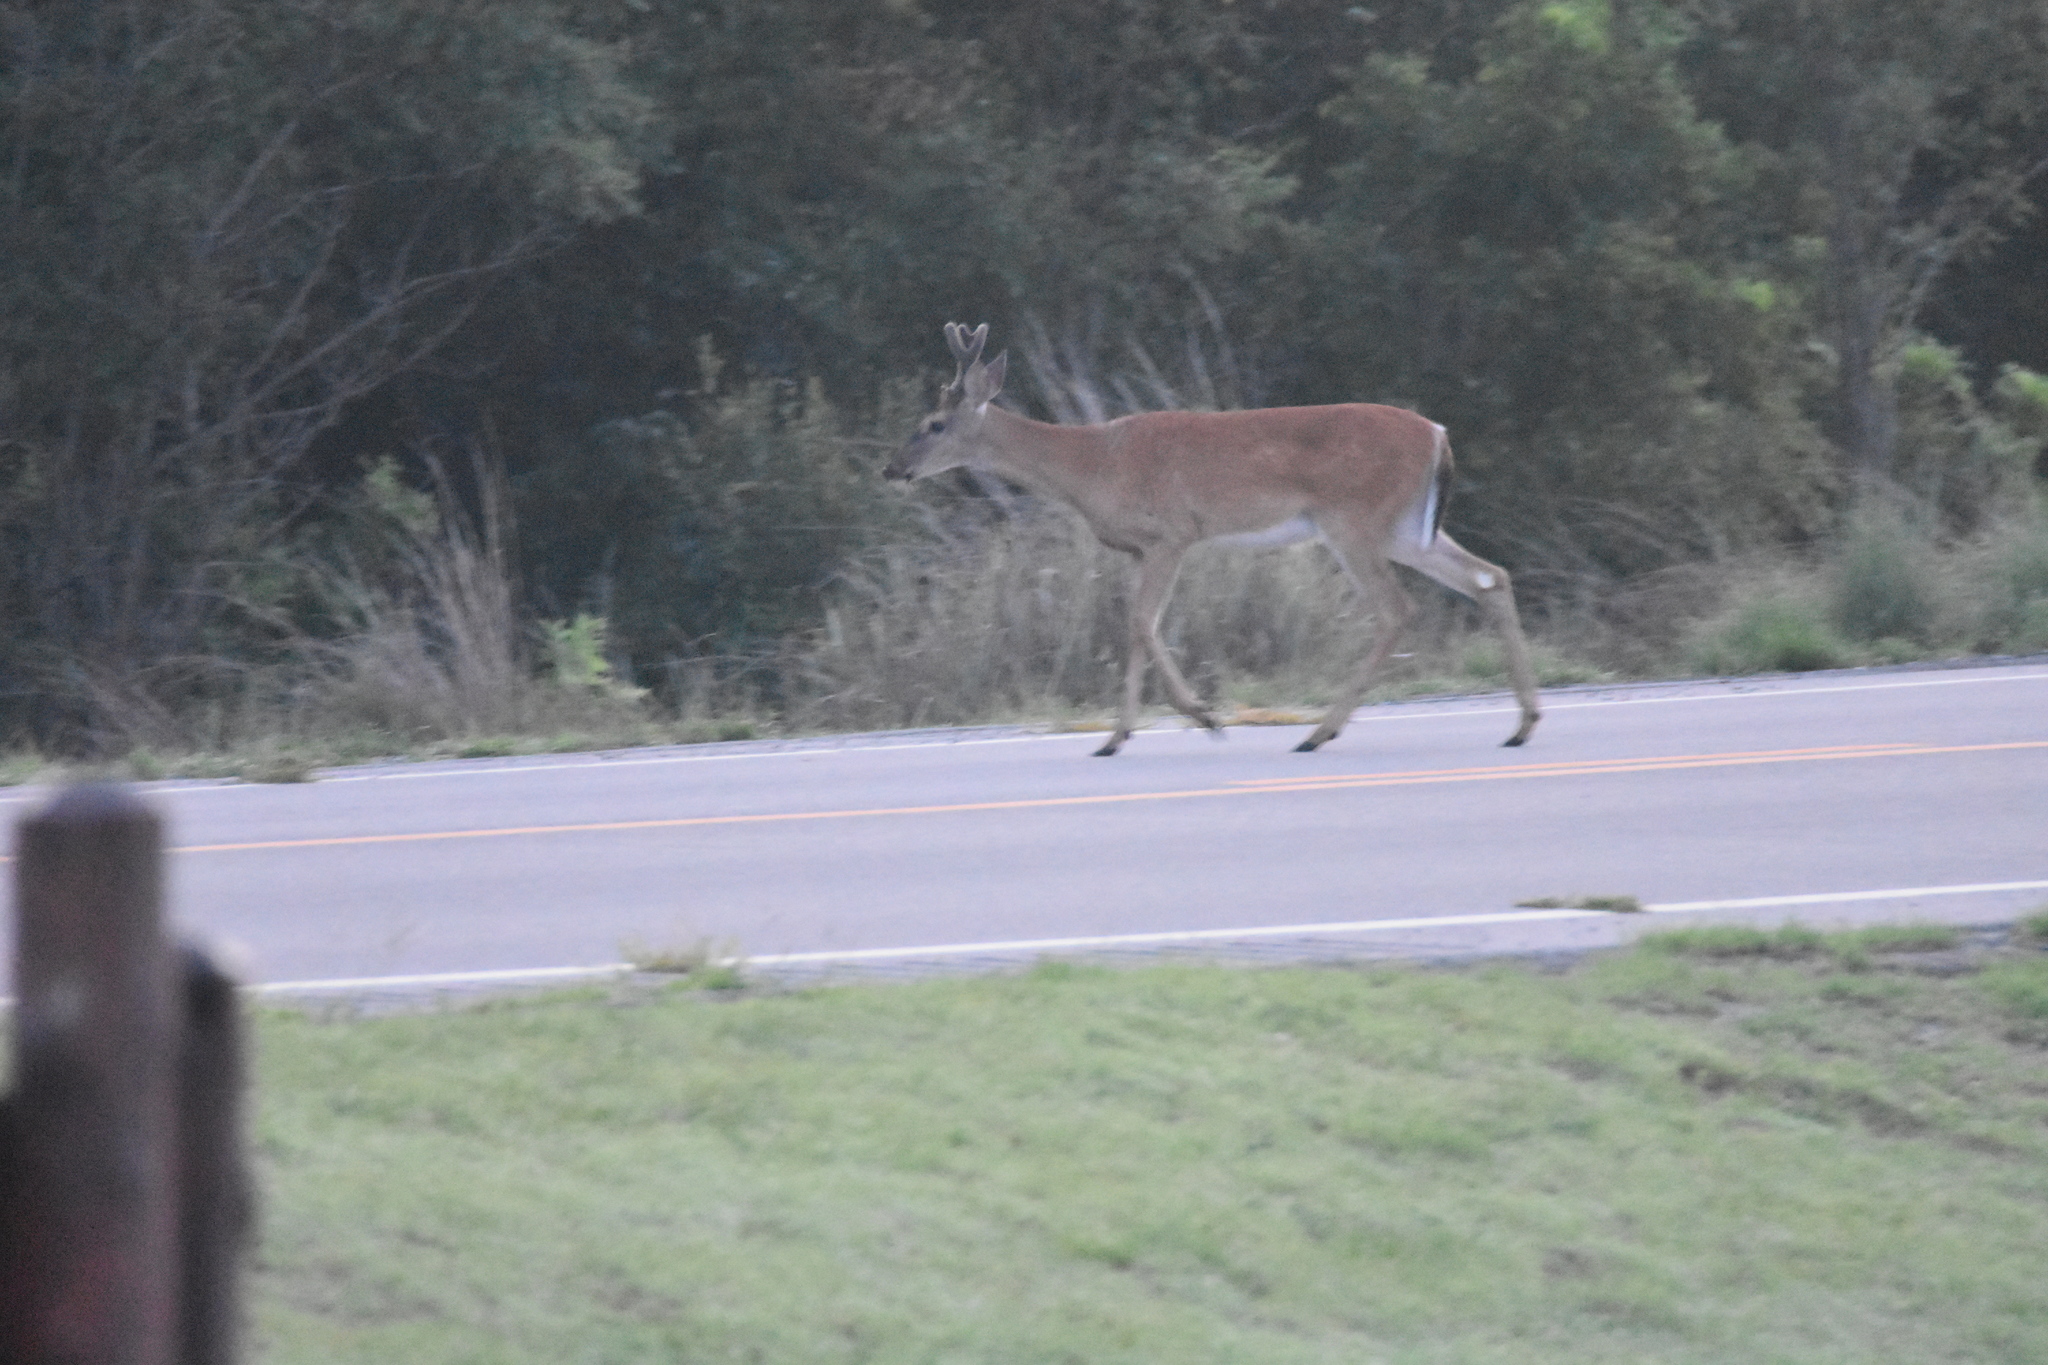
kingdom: Animalia
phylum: Chordata
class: Mammalia
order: Artiodactyla
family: Cervidae
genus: Odocoileus
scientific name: Odocoileus virginianus
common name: White-tailed deer
